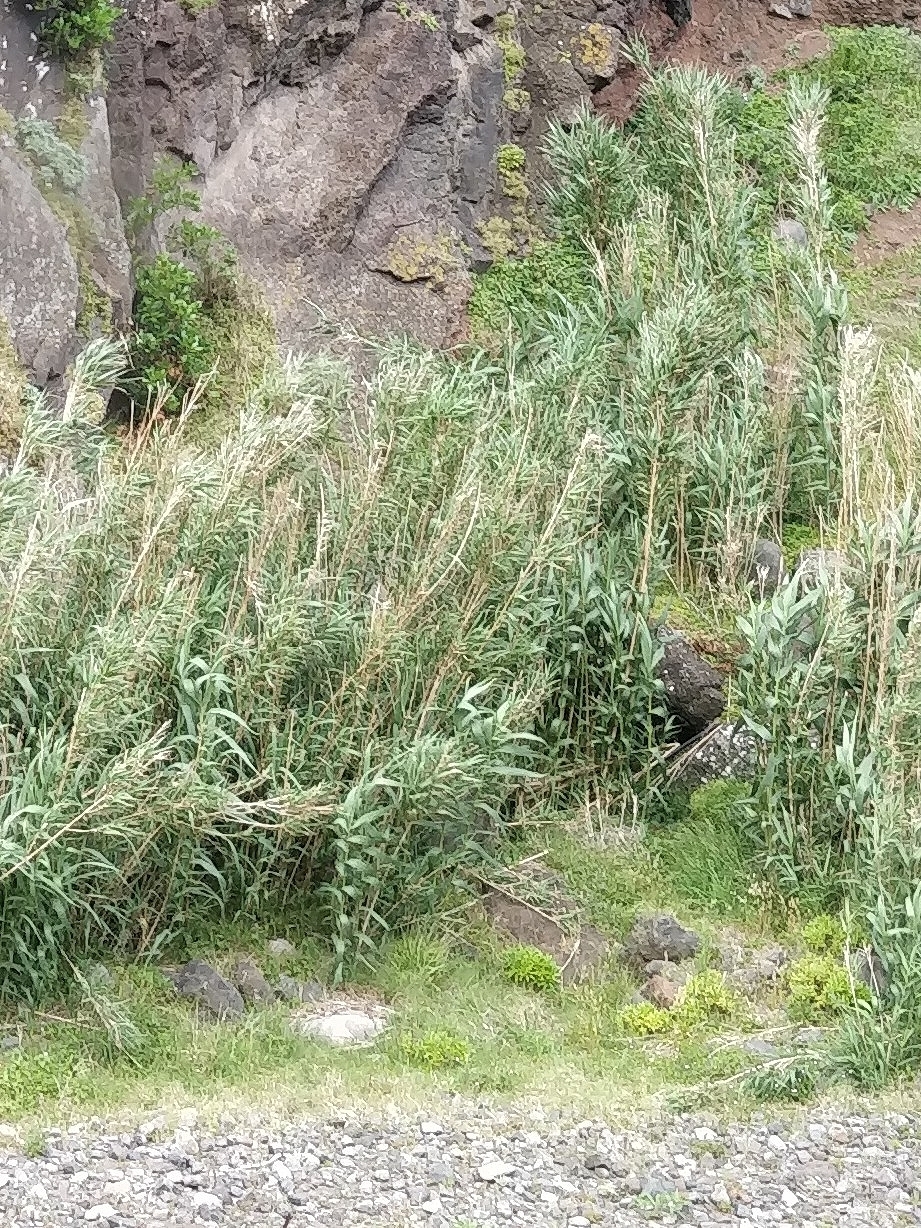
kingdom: Plantae
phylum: Tracheophyta
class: Liliopsida
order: Poales
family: Poaceae
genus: Arundo
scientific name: Arundo donax
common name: Giant reed
